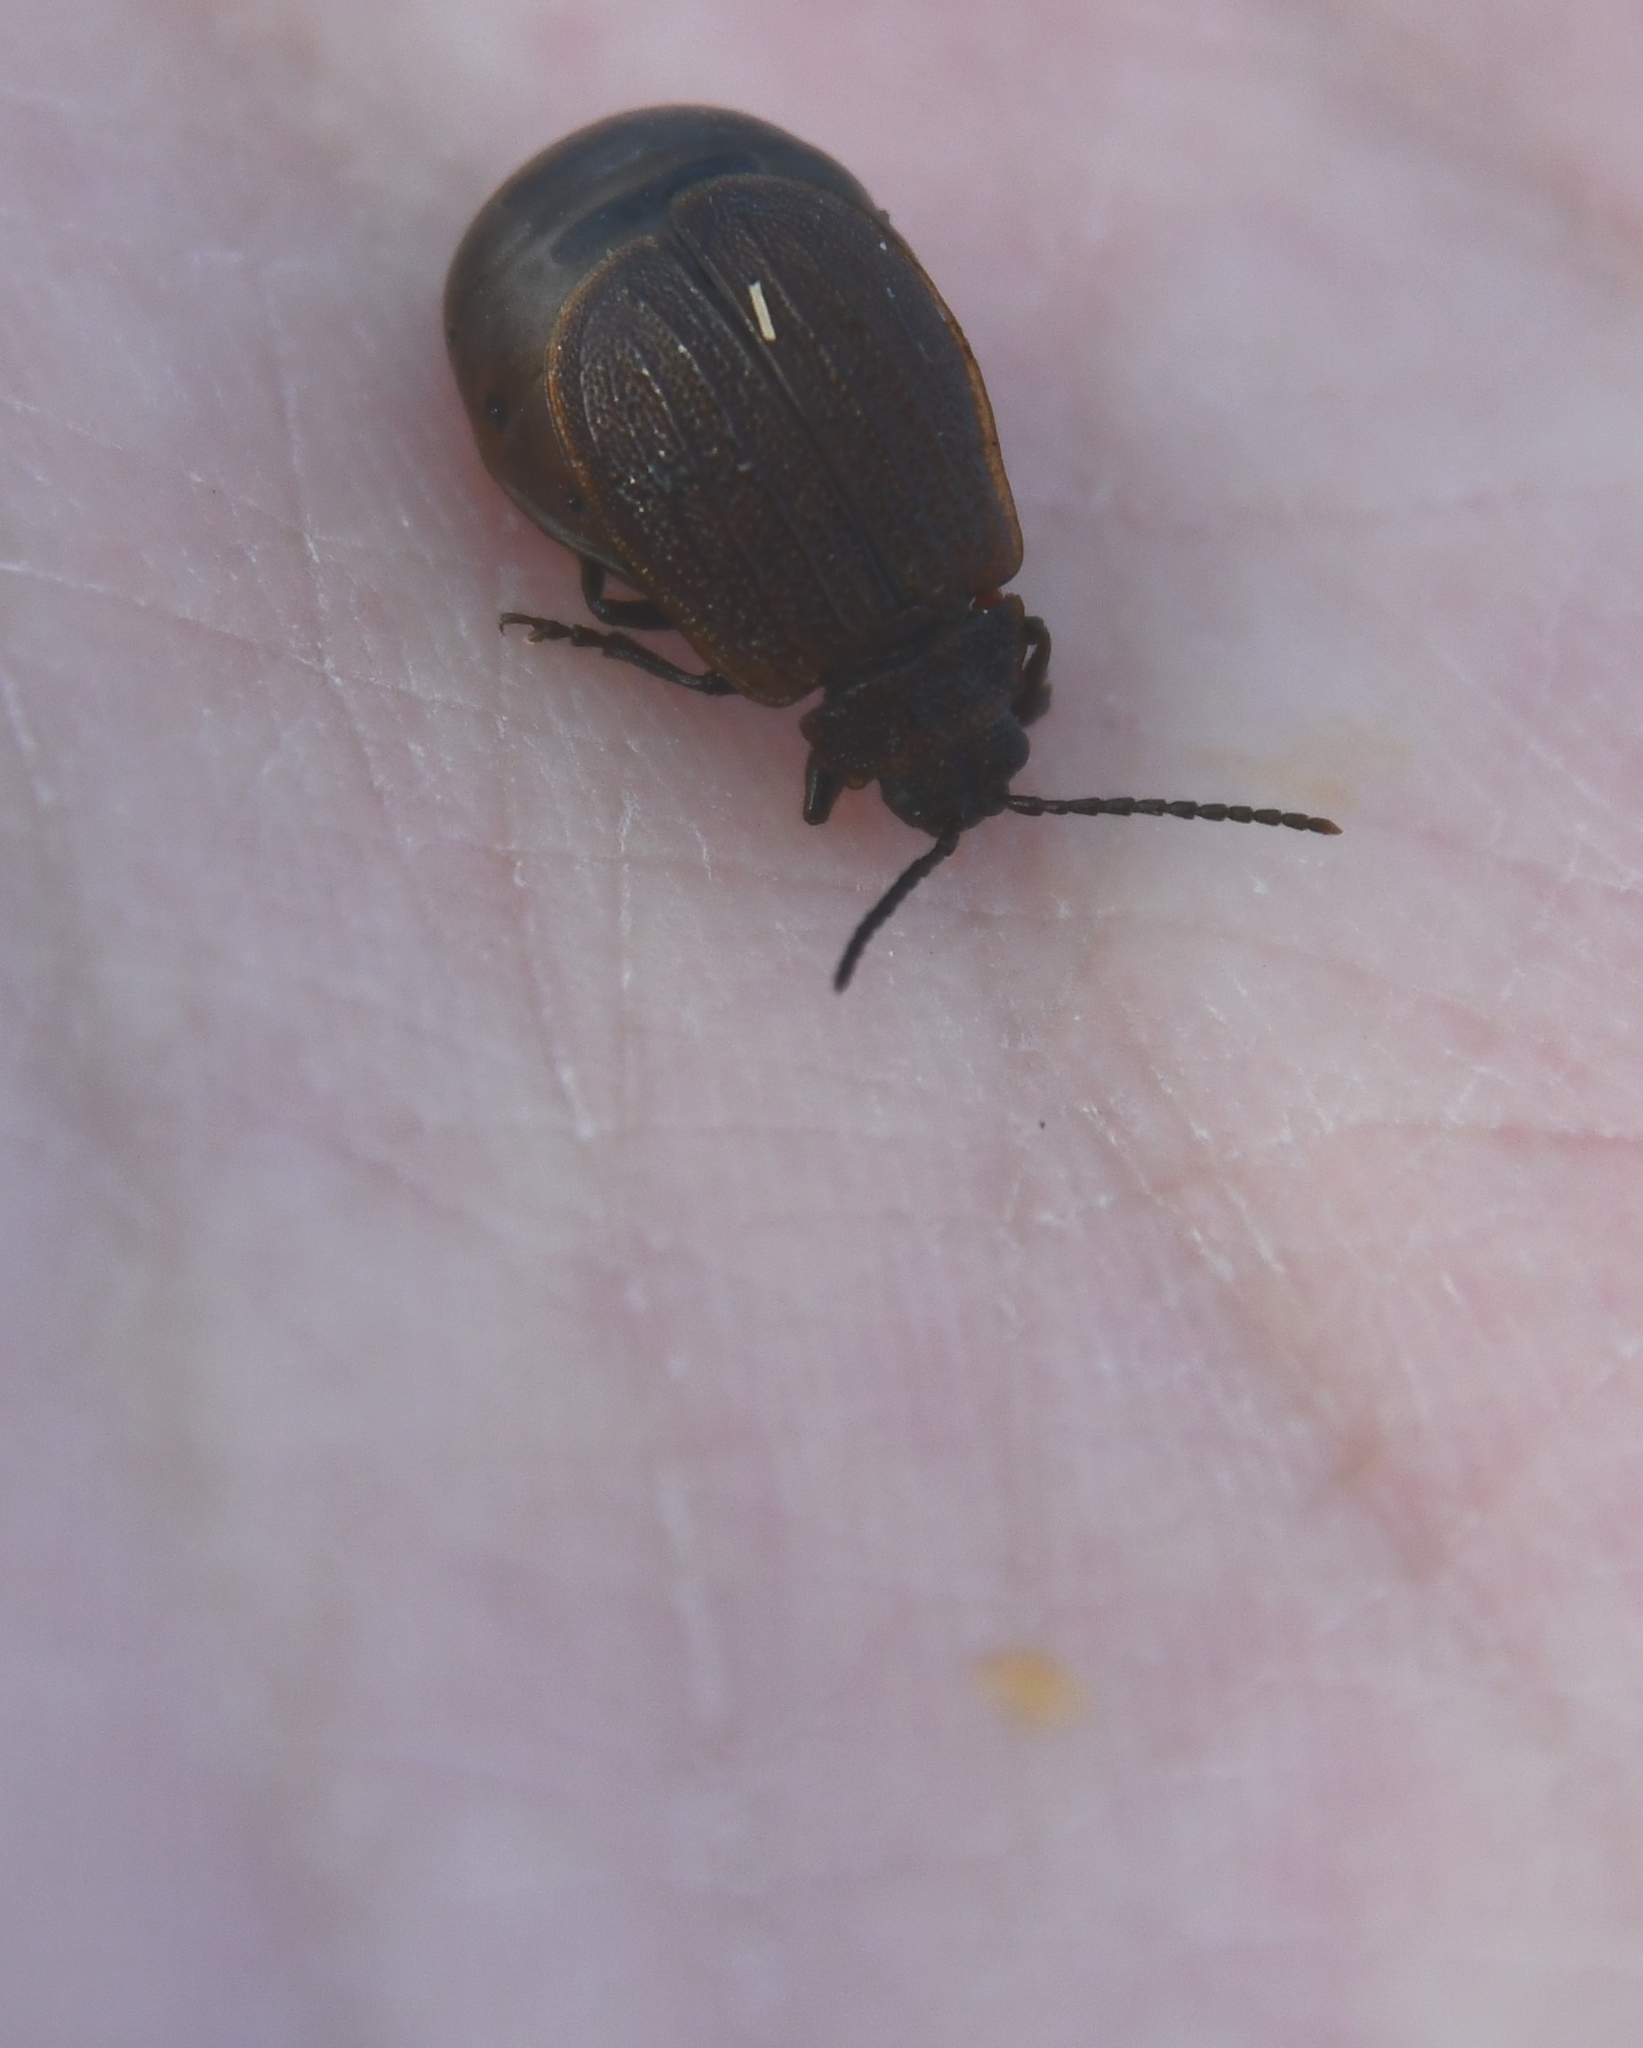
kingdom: Animalia
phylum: Arthropoda
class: Insecta
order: Coleoptera
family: Chrysomelidae
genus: Galeruca
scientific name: Galeruca pomonae
